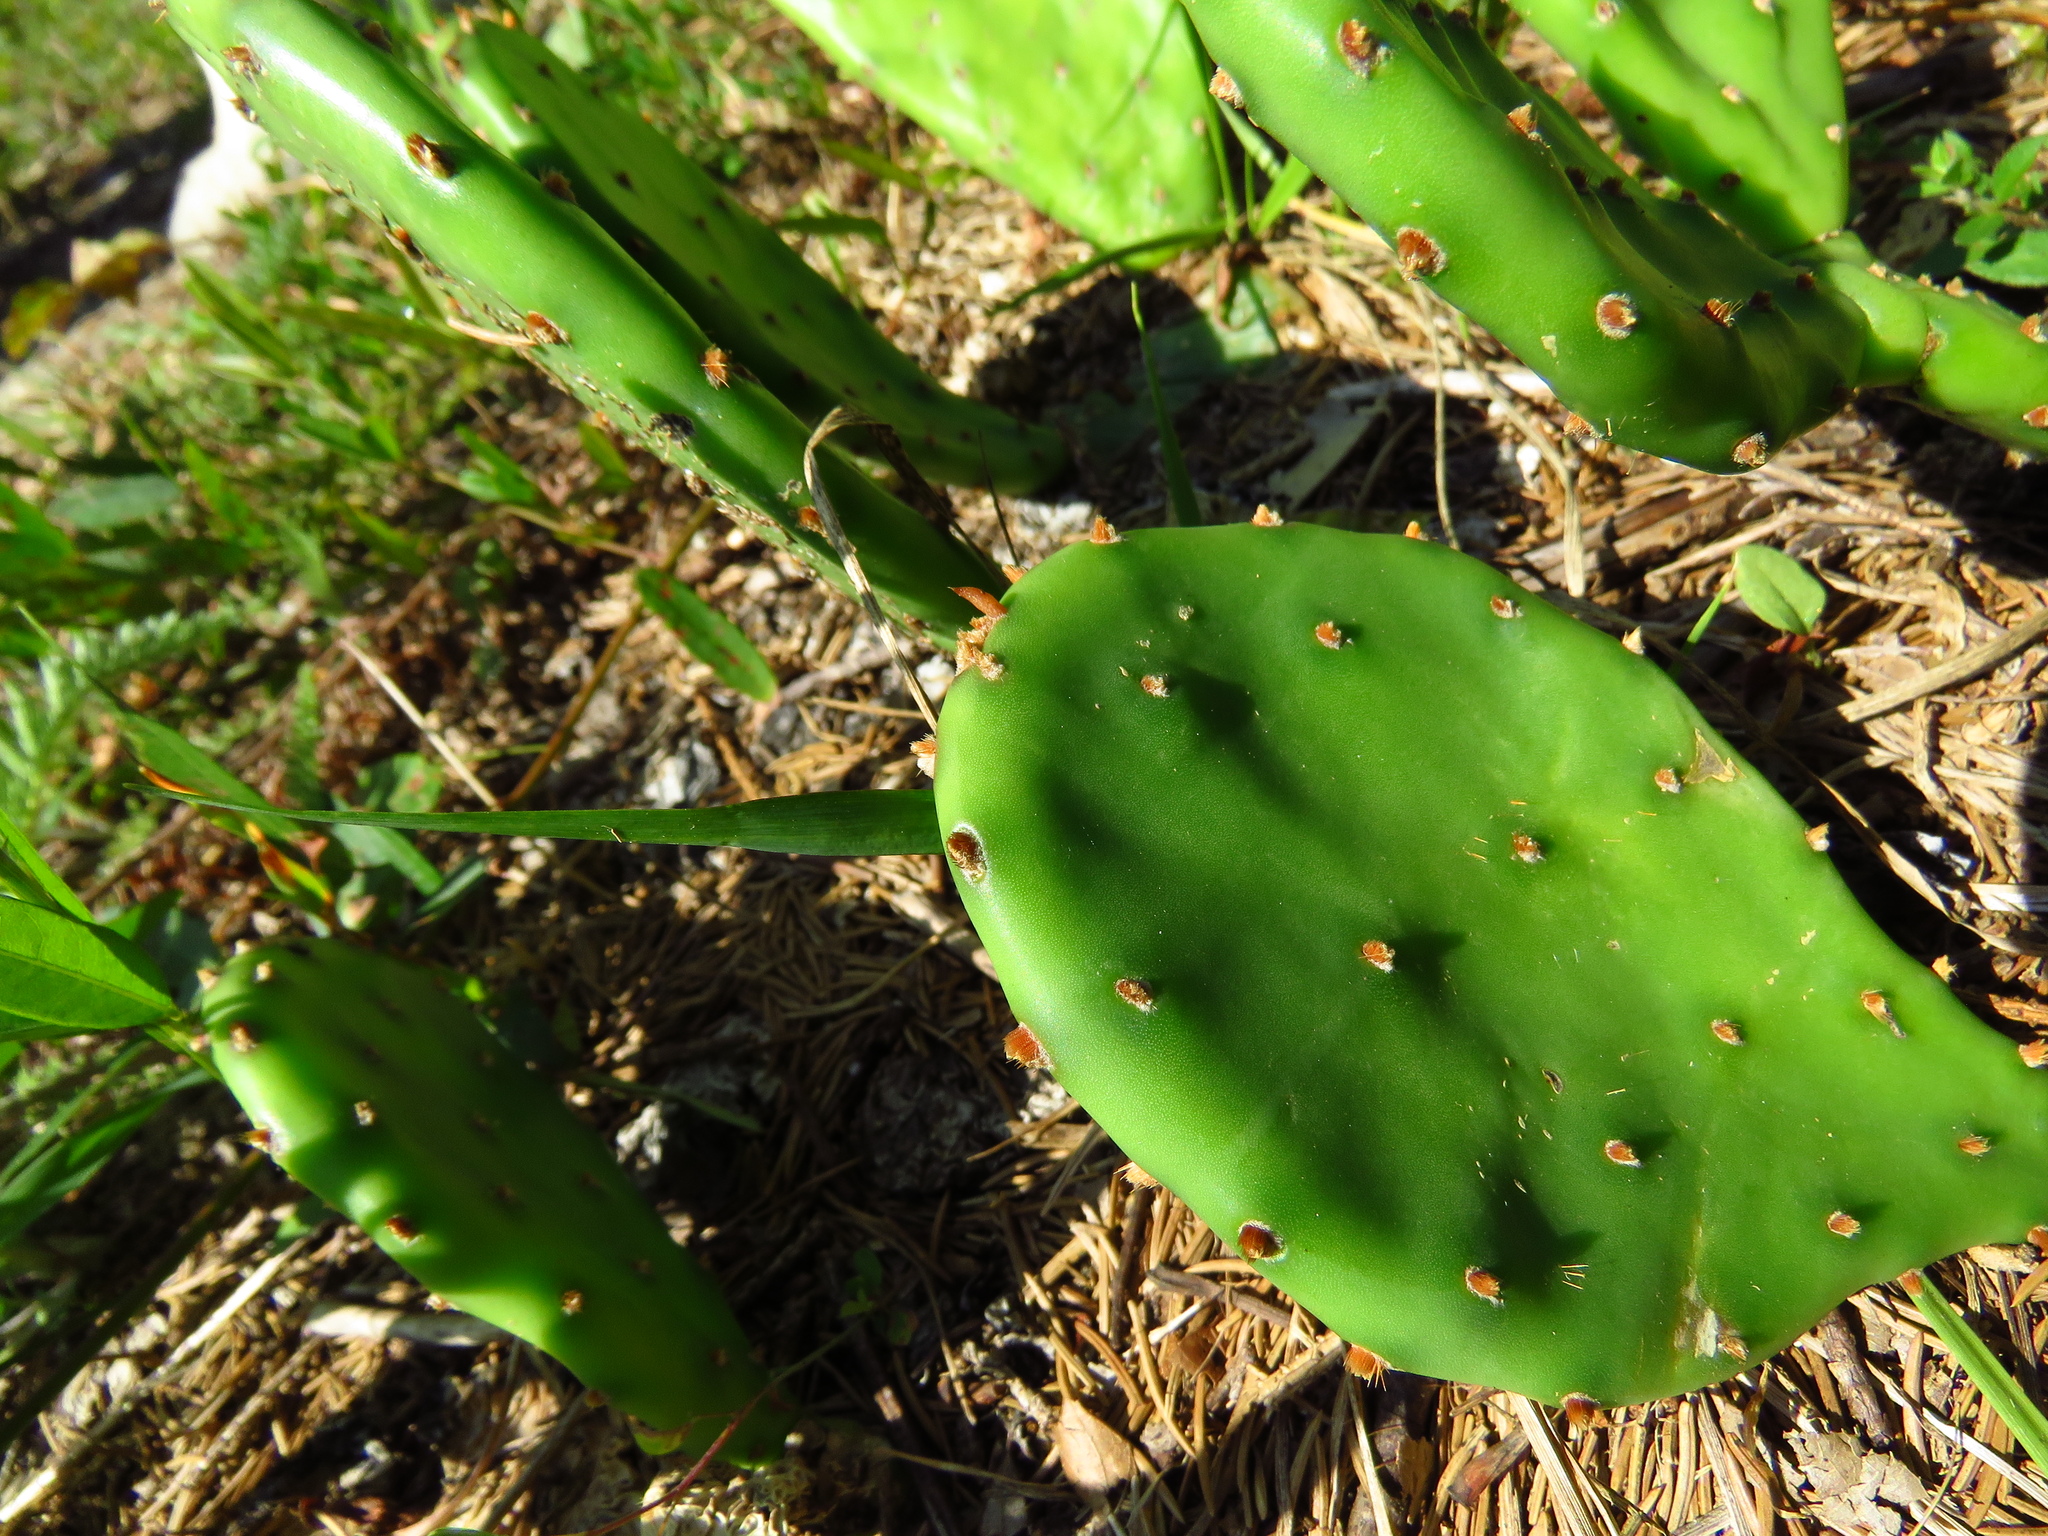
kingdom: Plantae
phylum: Tracheophyta
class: Magnoliopsida
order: Caryophyllales
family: Cactaceae
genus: Opuntia
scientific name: Opuntia humifusa
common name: Eastern prickly-pear
